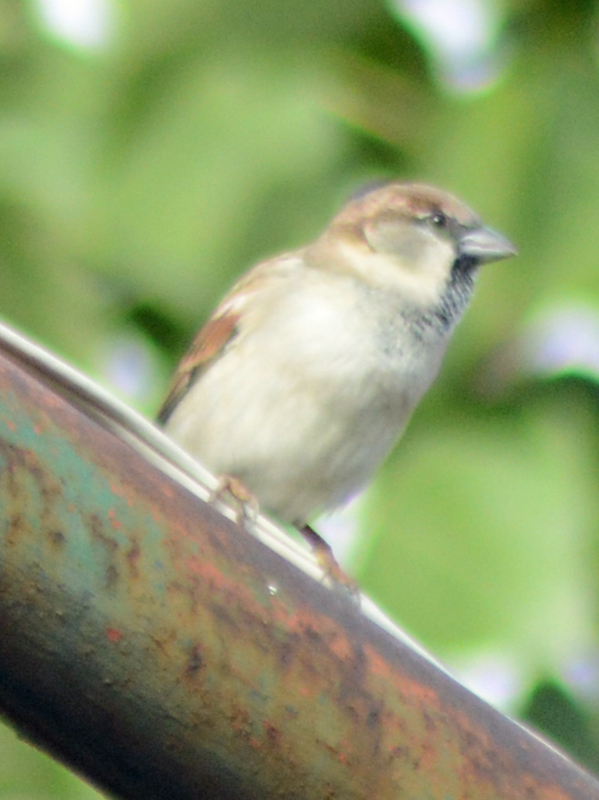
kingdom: Animalia
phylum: Chordata
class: Aves
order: Passeriformes
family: Passeridae
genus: Passer
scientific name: Passer domesticus
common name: House sparrow
